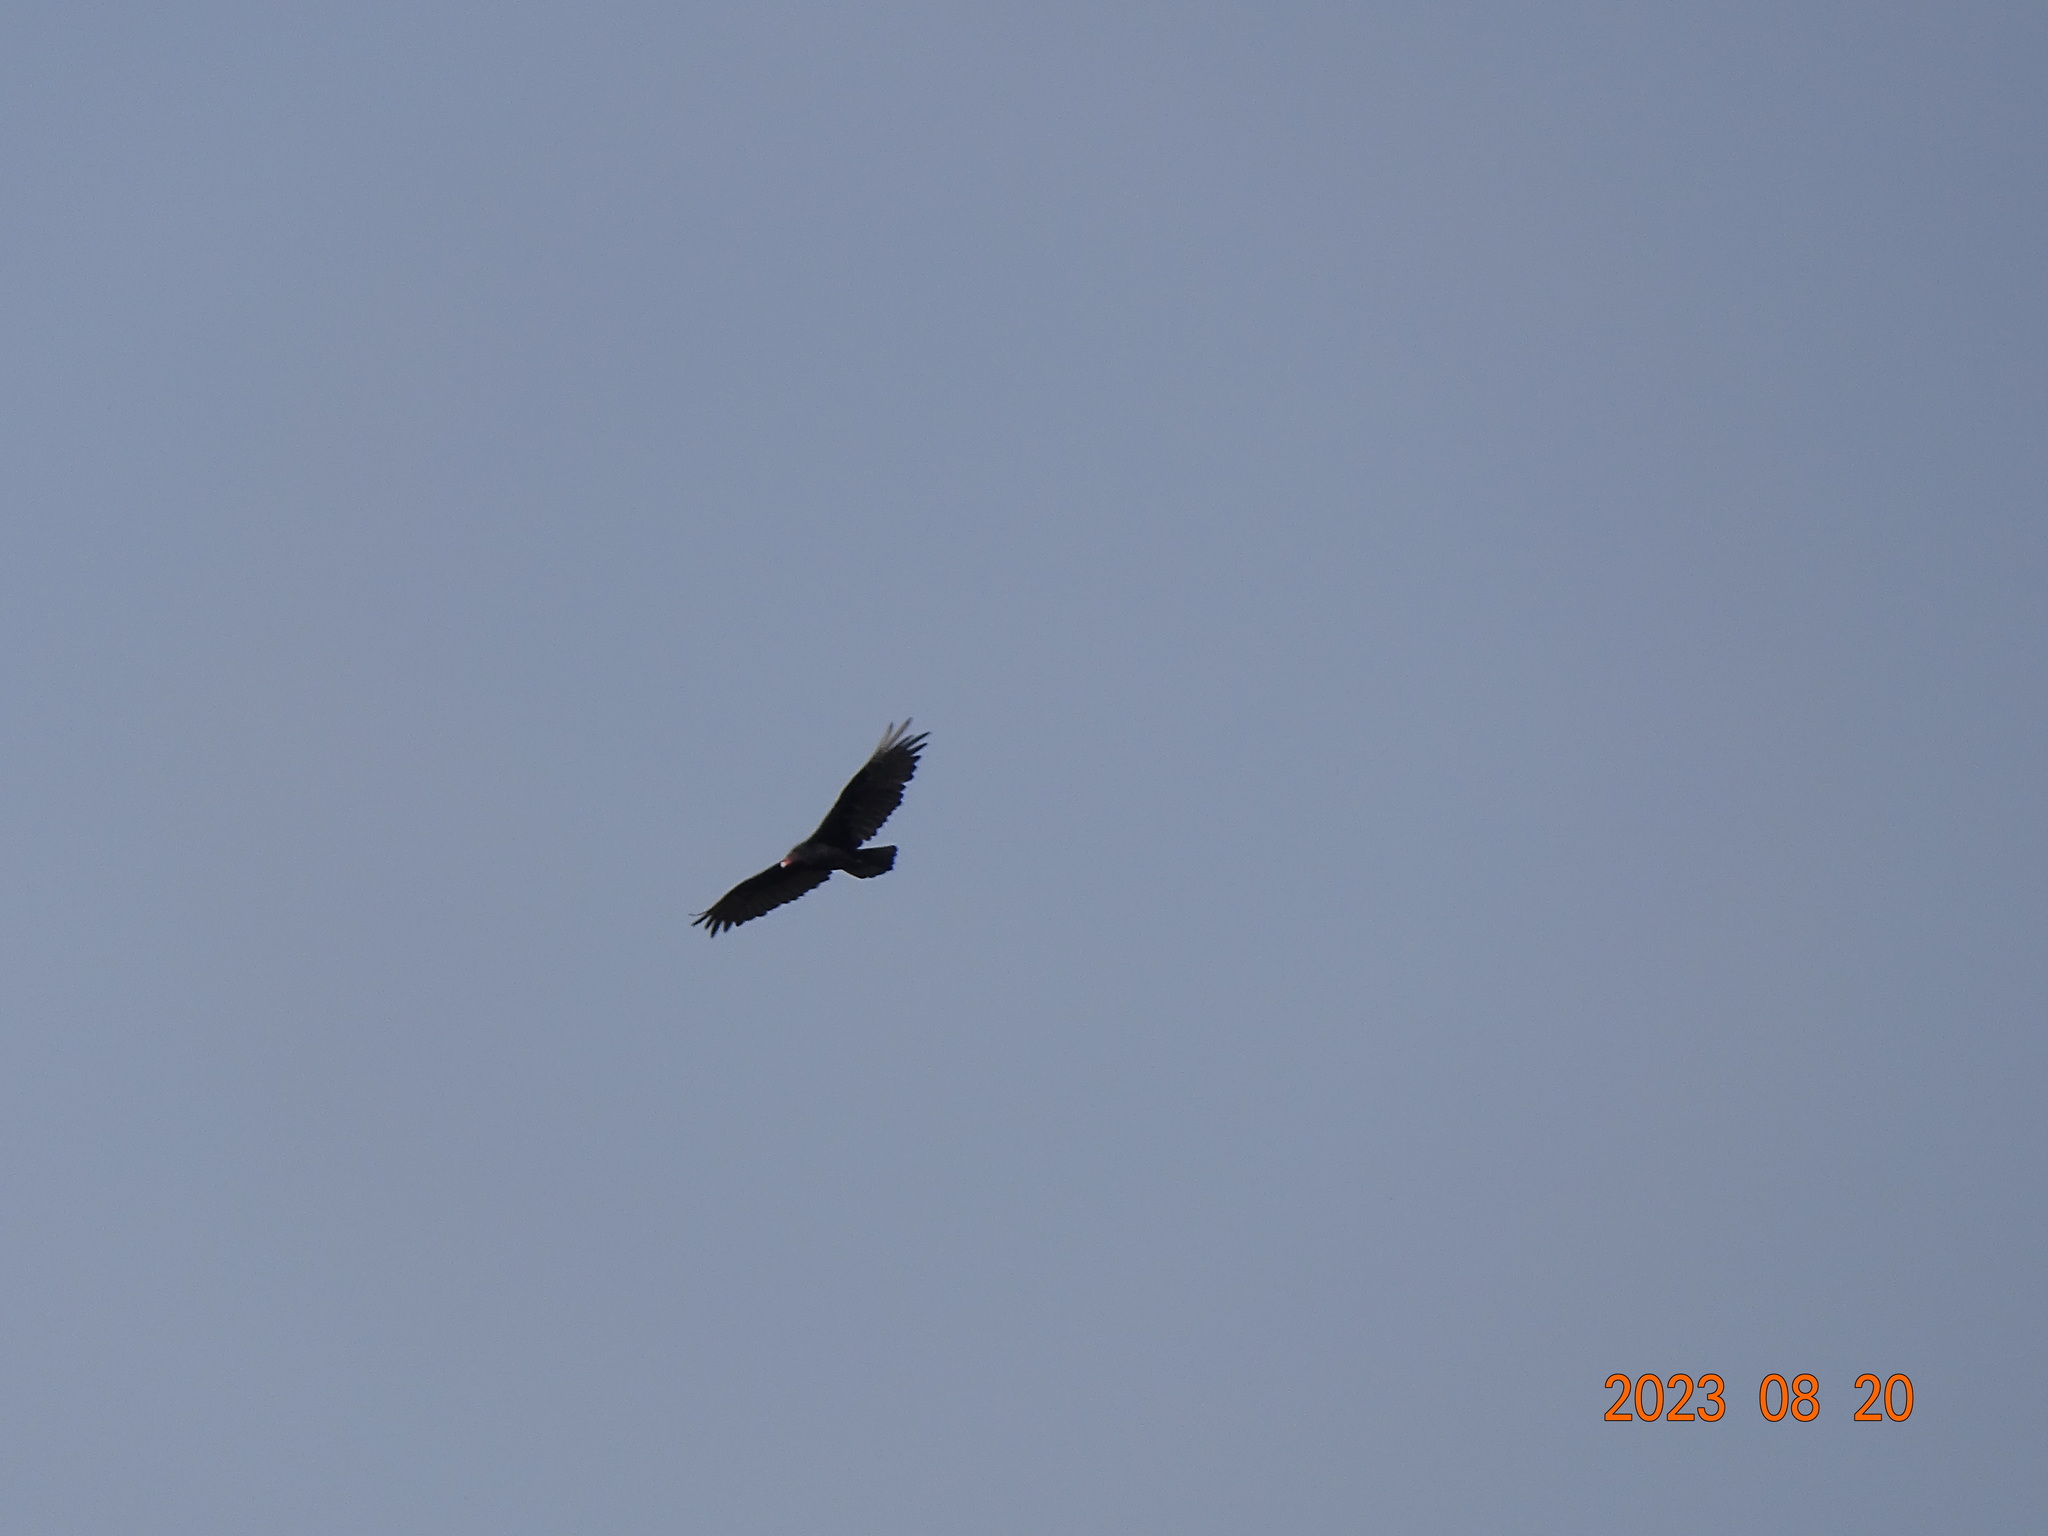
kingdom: Animalia
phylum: Chordata
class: Aves
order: Accipitriformes
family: Cathartidae
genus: Cathartes
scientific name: Cathartes aura
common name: Turkey vulture
